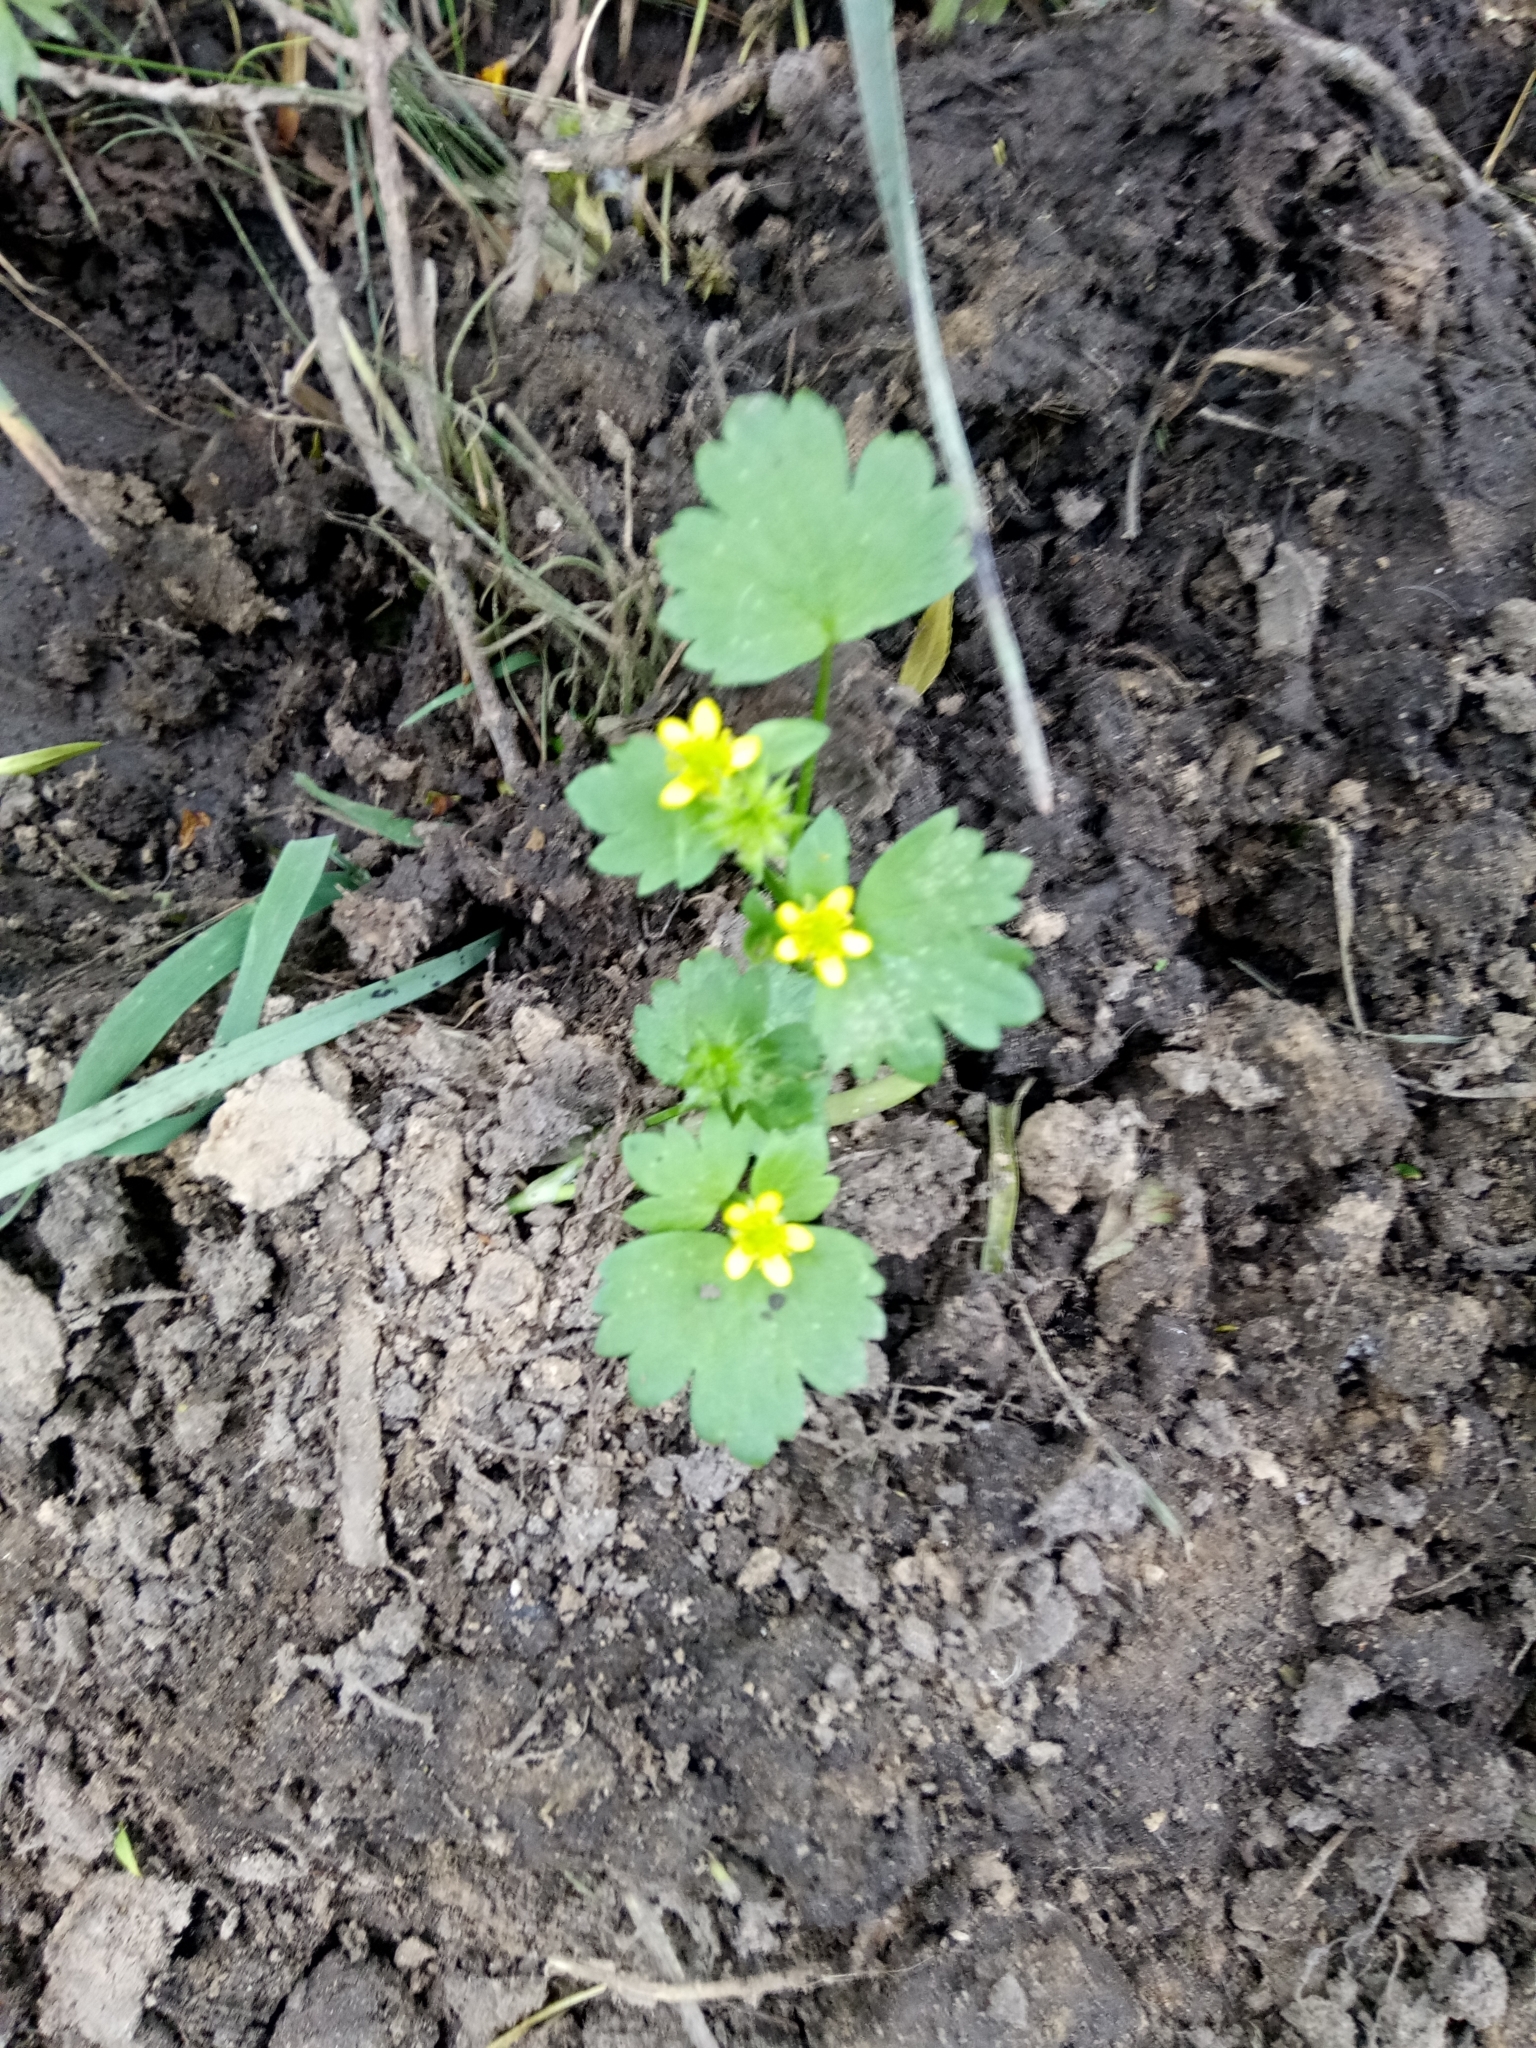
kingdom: Plantae
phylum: Tracheophyta
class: Magnoliopsida
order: Ranunculales
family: Ranunculaceae
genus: Ranunculus
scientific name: Ranunculus muricatus
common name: Rough-fruited buttercup
